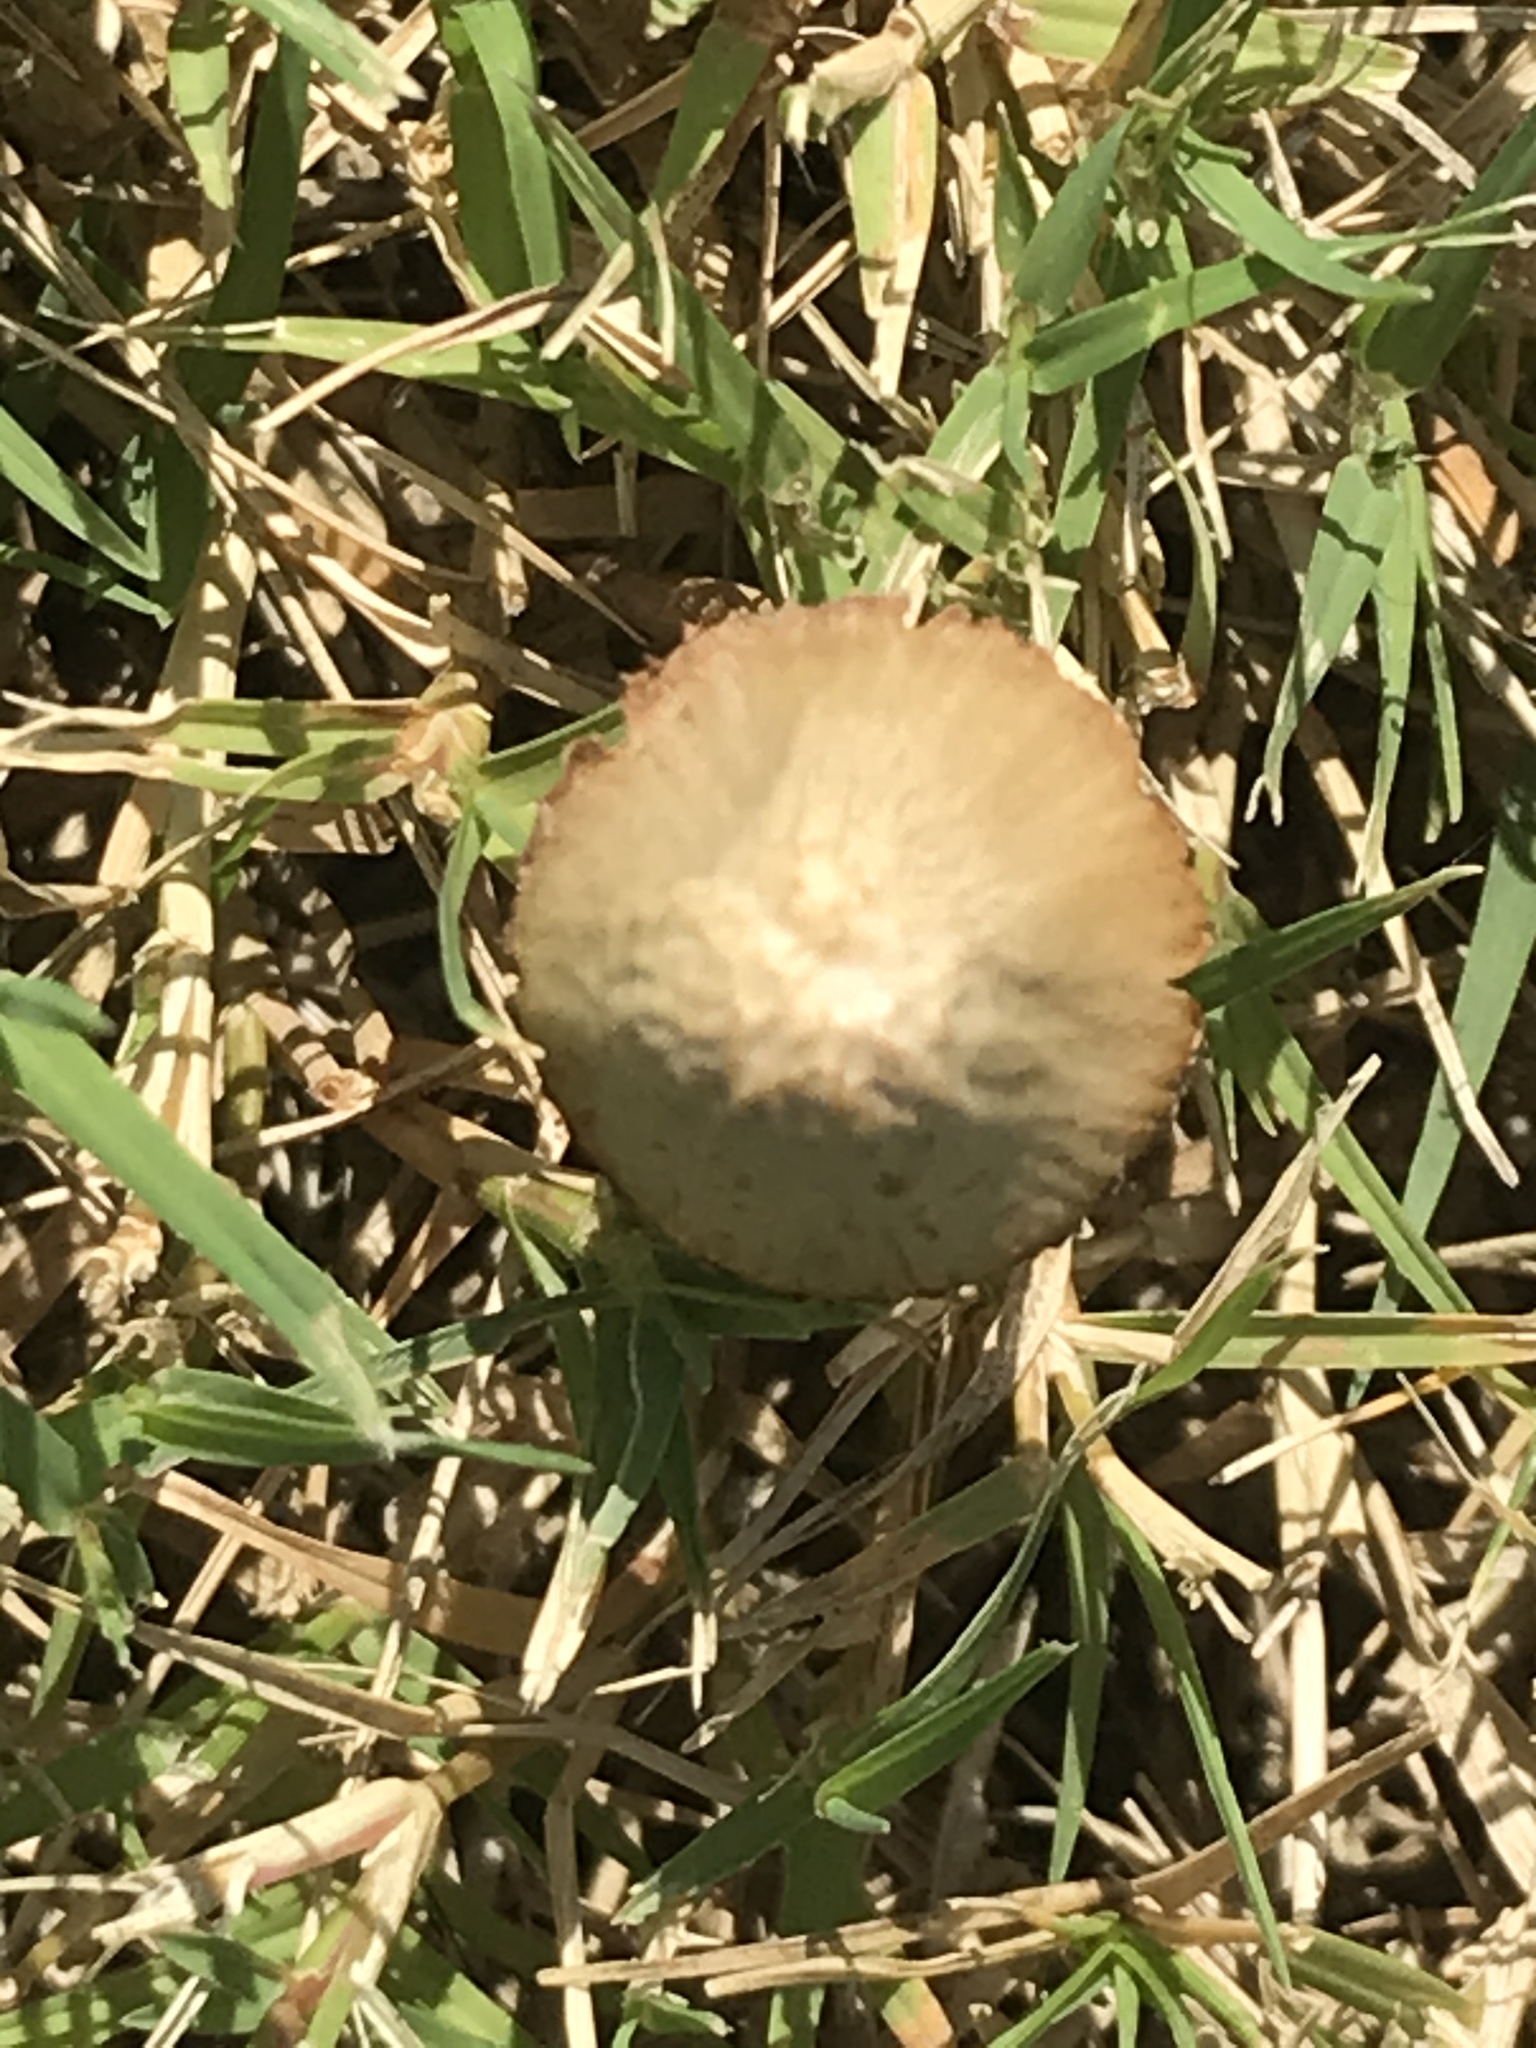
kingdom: Fungi
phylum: Basidiomycota
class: Agaricomycetes
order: Agaricales
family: Bolbitiaceae
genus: Conocybe
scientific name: Conocybe apala
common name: Milky conecap
